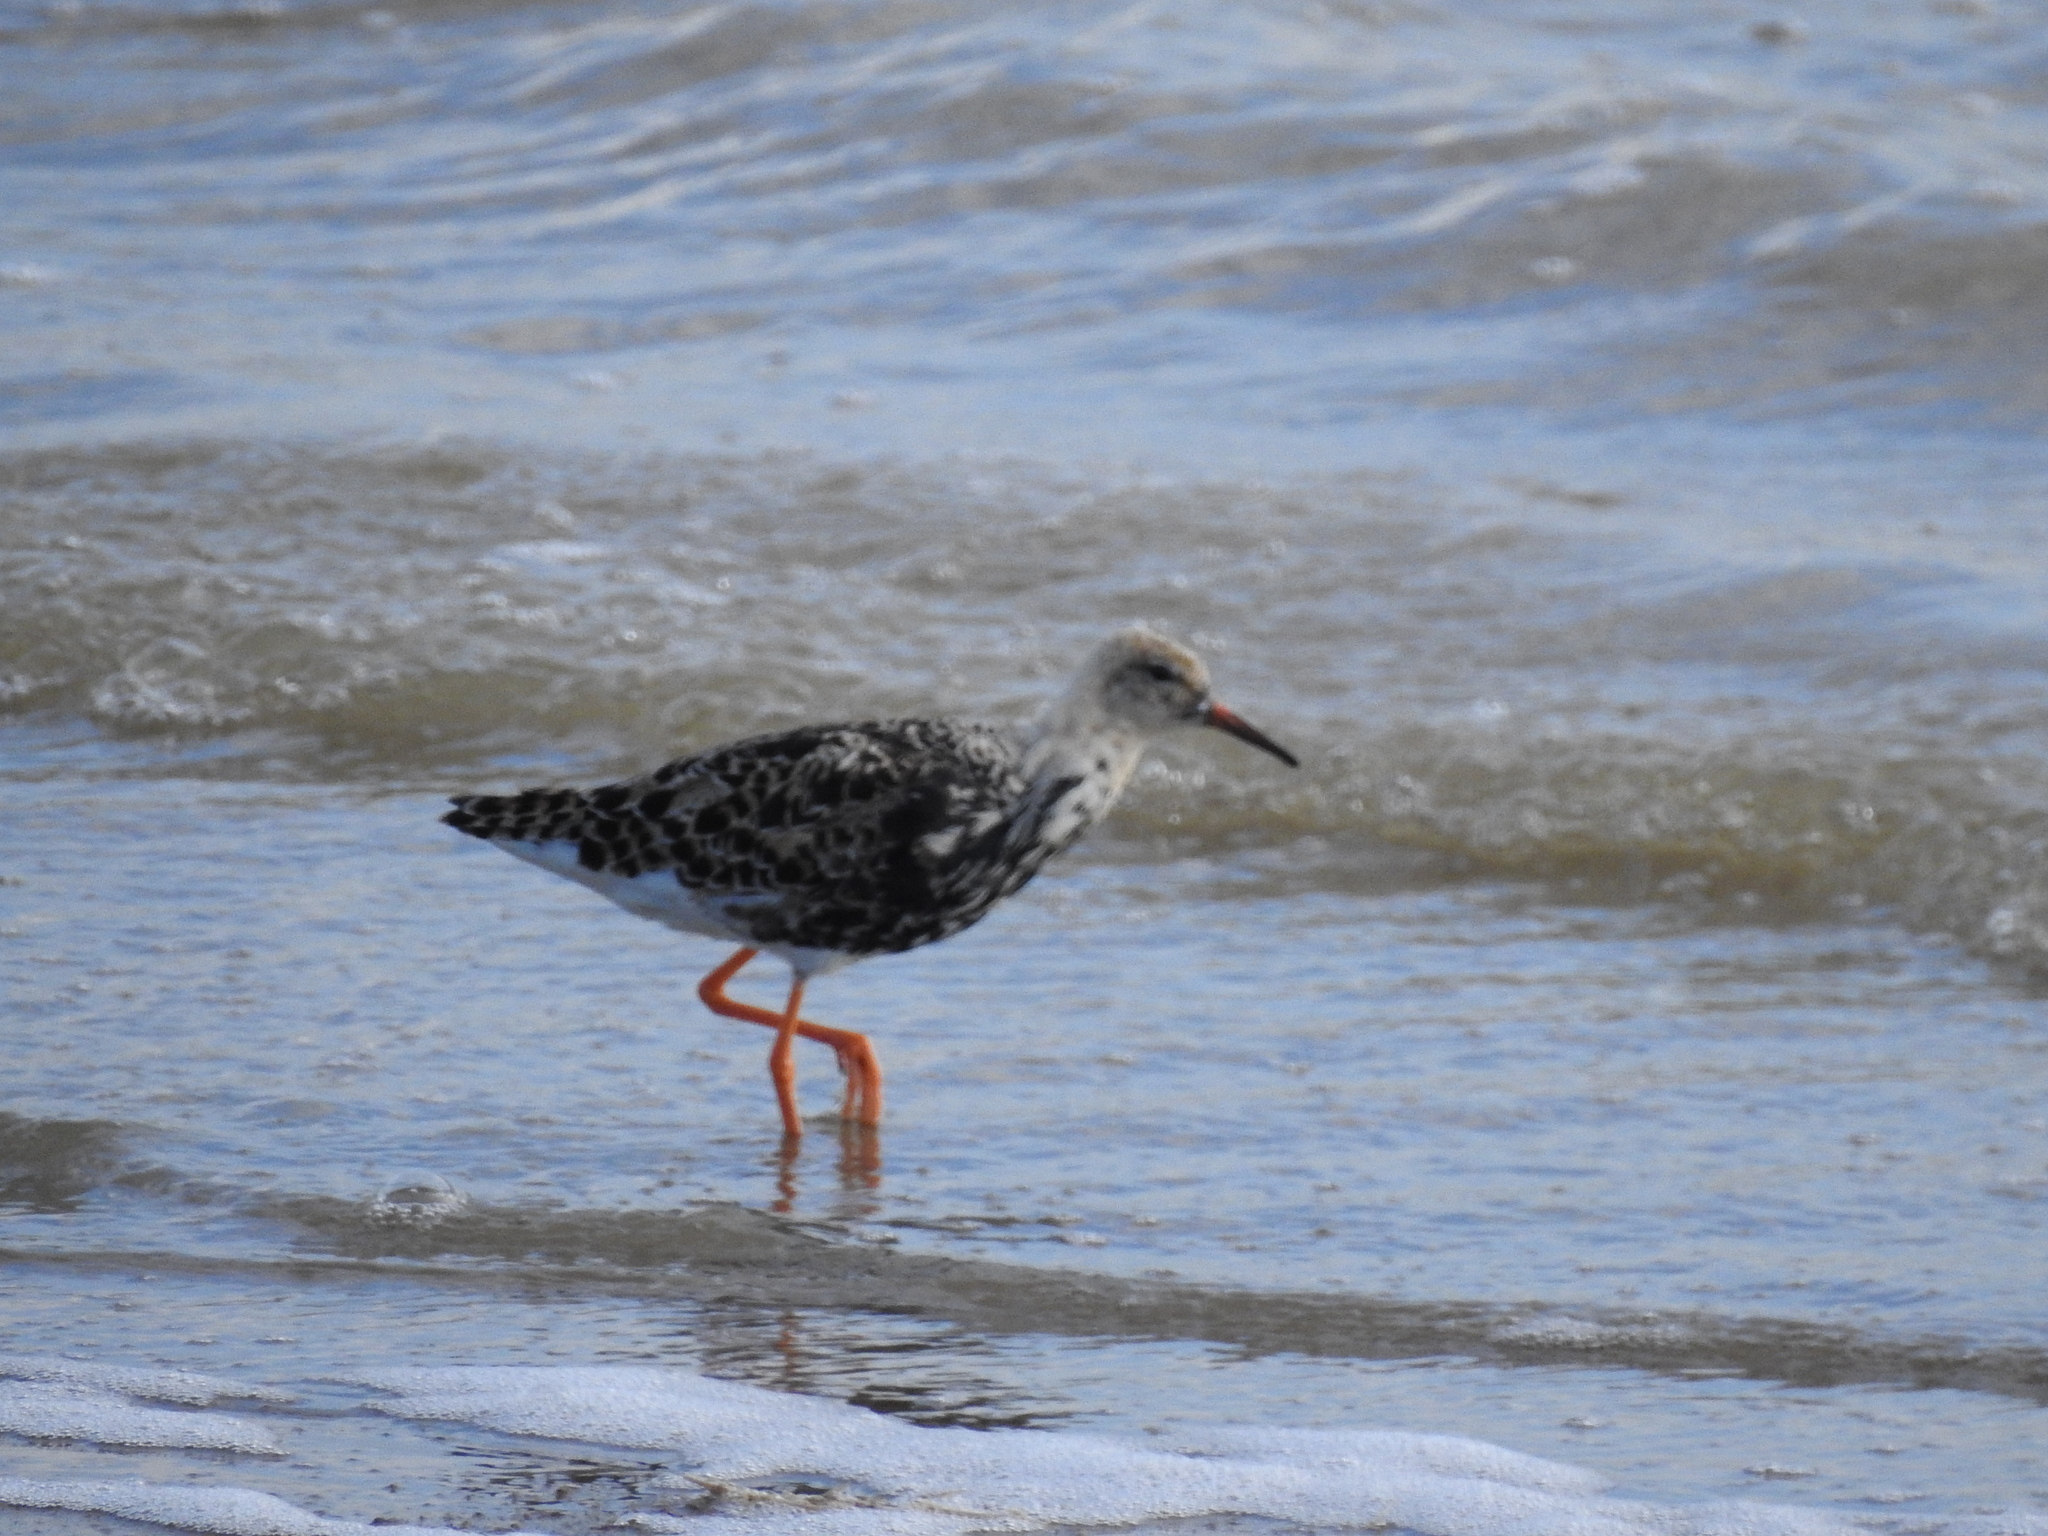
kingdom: Animalia
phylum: Chordata
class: Aves
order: Charadriiformes
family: Scolopacidae
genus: Calidris
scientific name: Calidris pugnax
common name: Ruff
